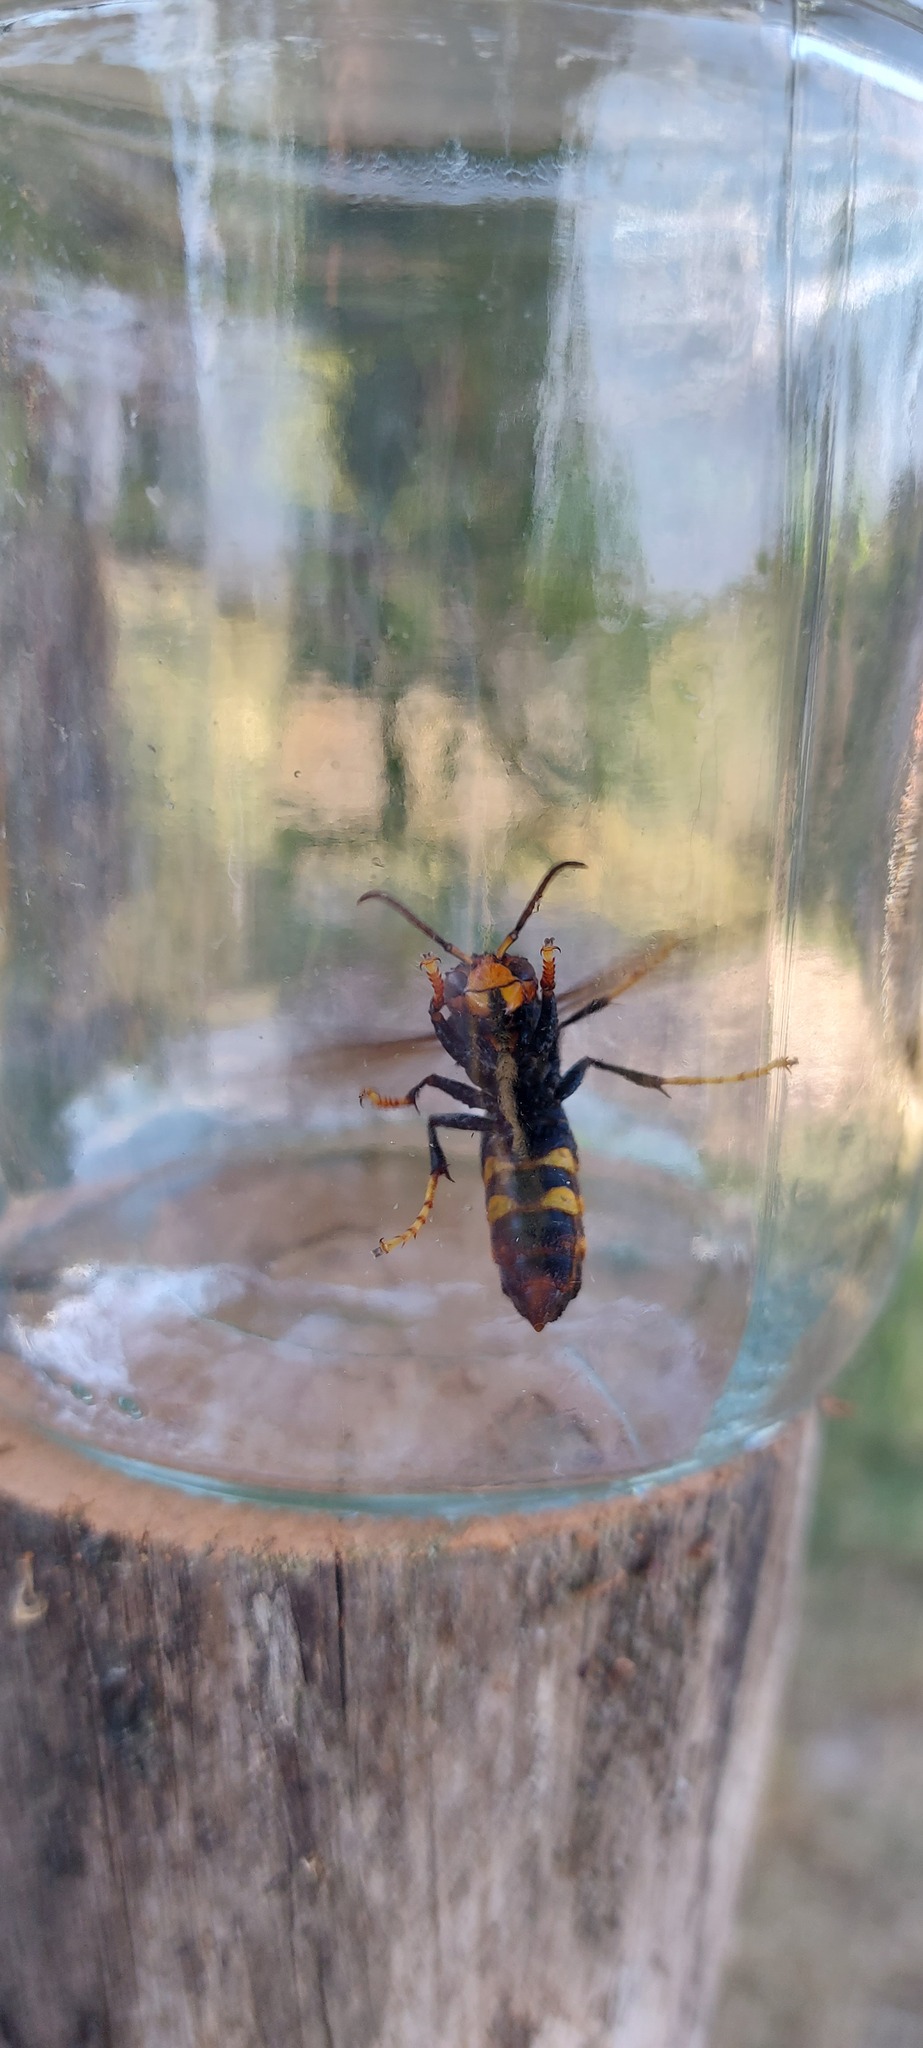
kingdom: Animalia
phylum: Arthropoda
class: Insecta
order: Hymenoptera
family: Vespidae
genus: Vespa
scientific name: Vespa velutina
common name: Asian hornet
